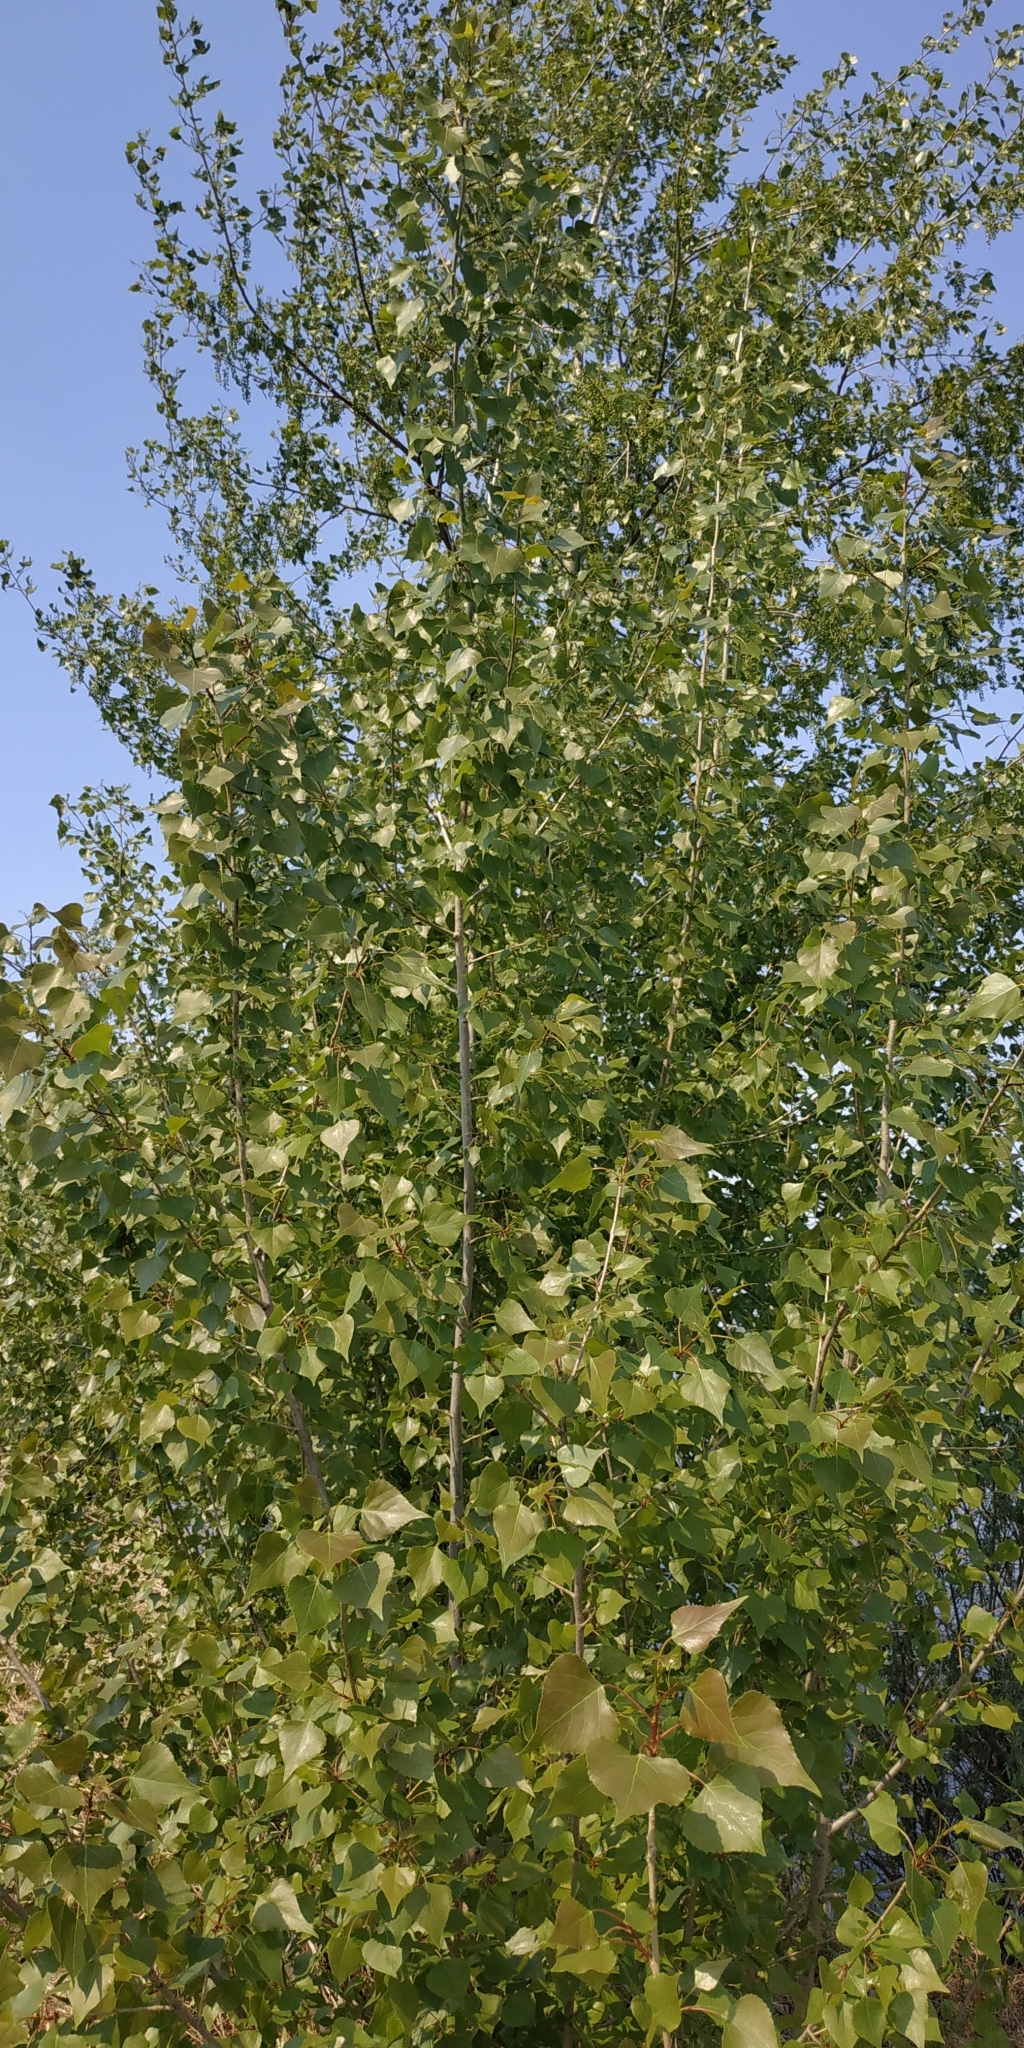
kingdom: Plantae
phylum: Tracheophyta
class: Magnoliopsida
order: Malpighiales
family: Salicaceae
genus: Populus
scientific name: Populus nigra
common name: Black poplar
